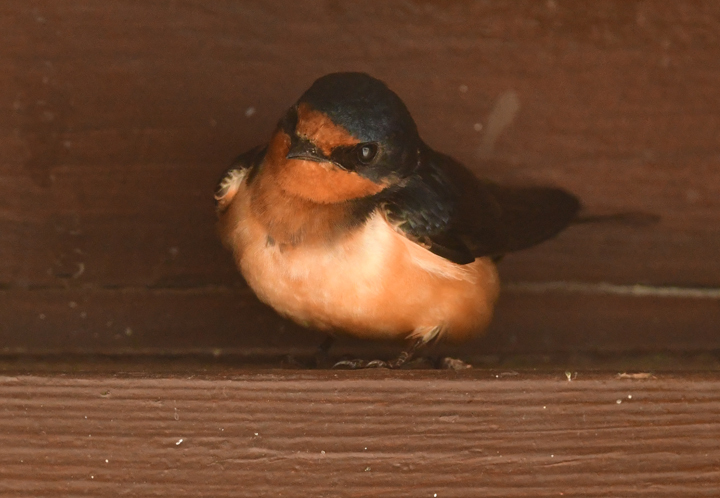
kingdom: Animalia
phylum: Chordata
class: Aves
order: Passeriformes
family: Hirundinidae
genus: Hirundo
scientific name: Hirundo rustica
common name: Barn swallow
